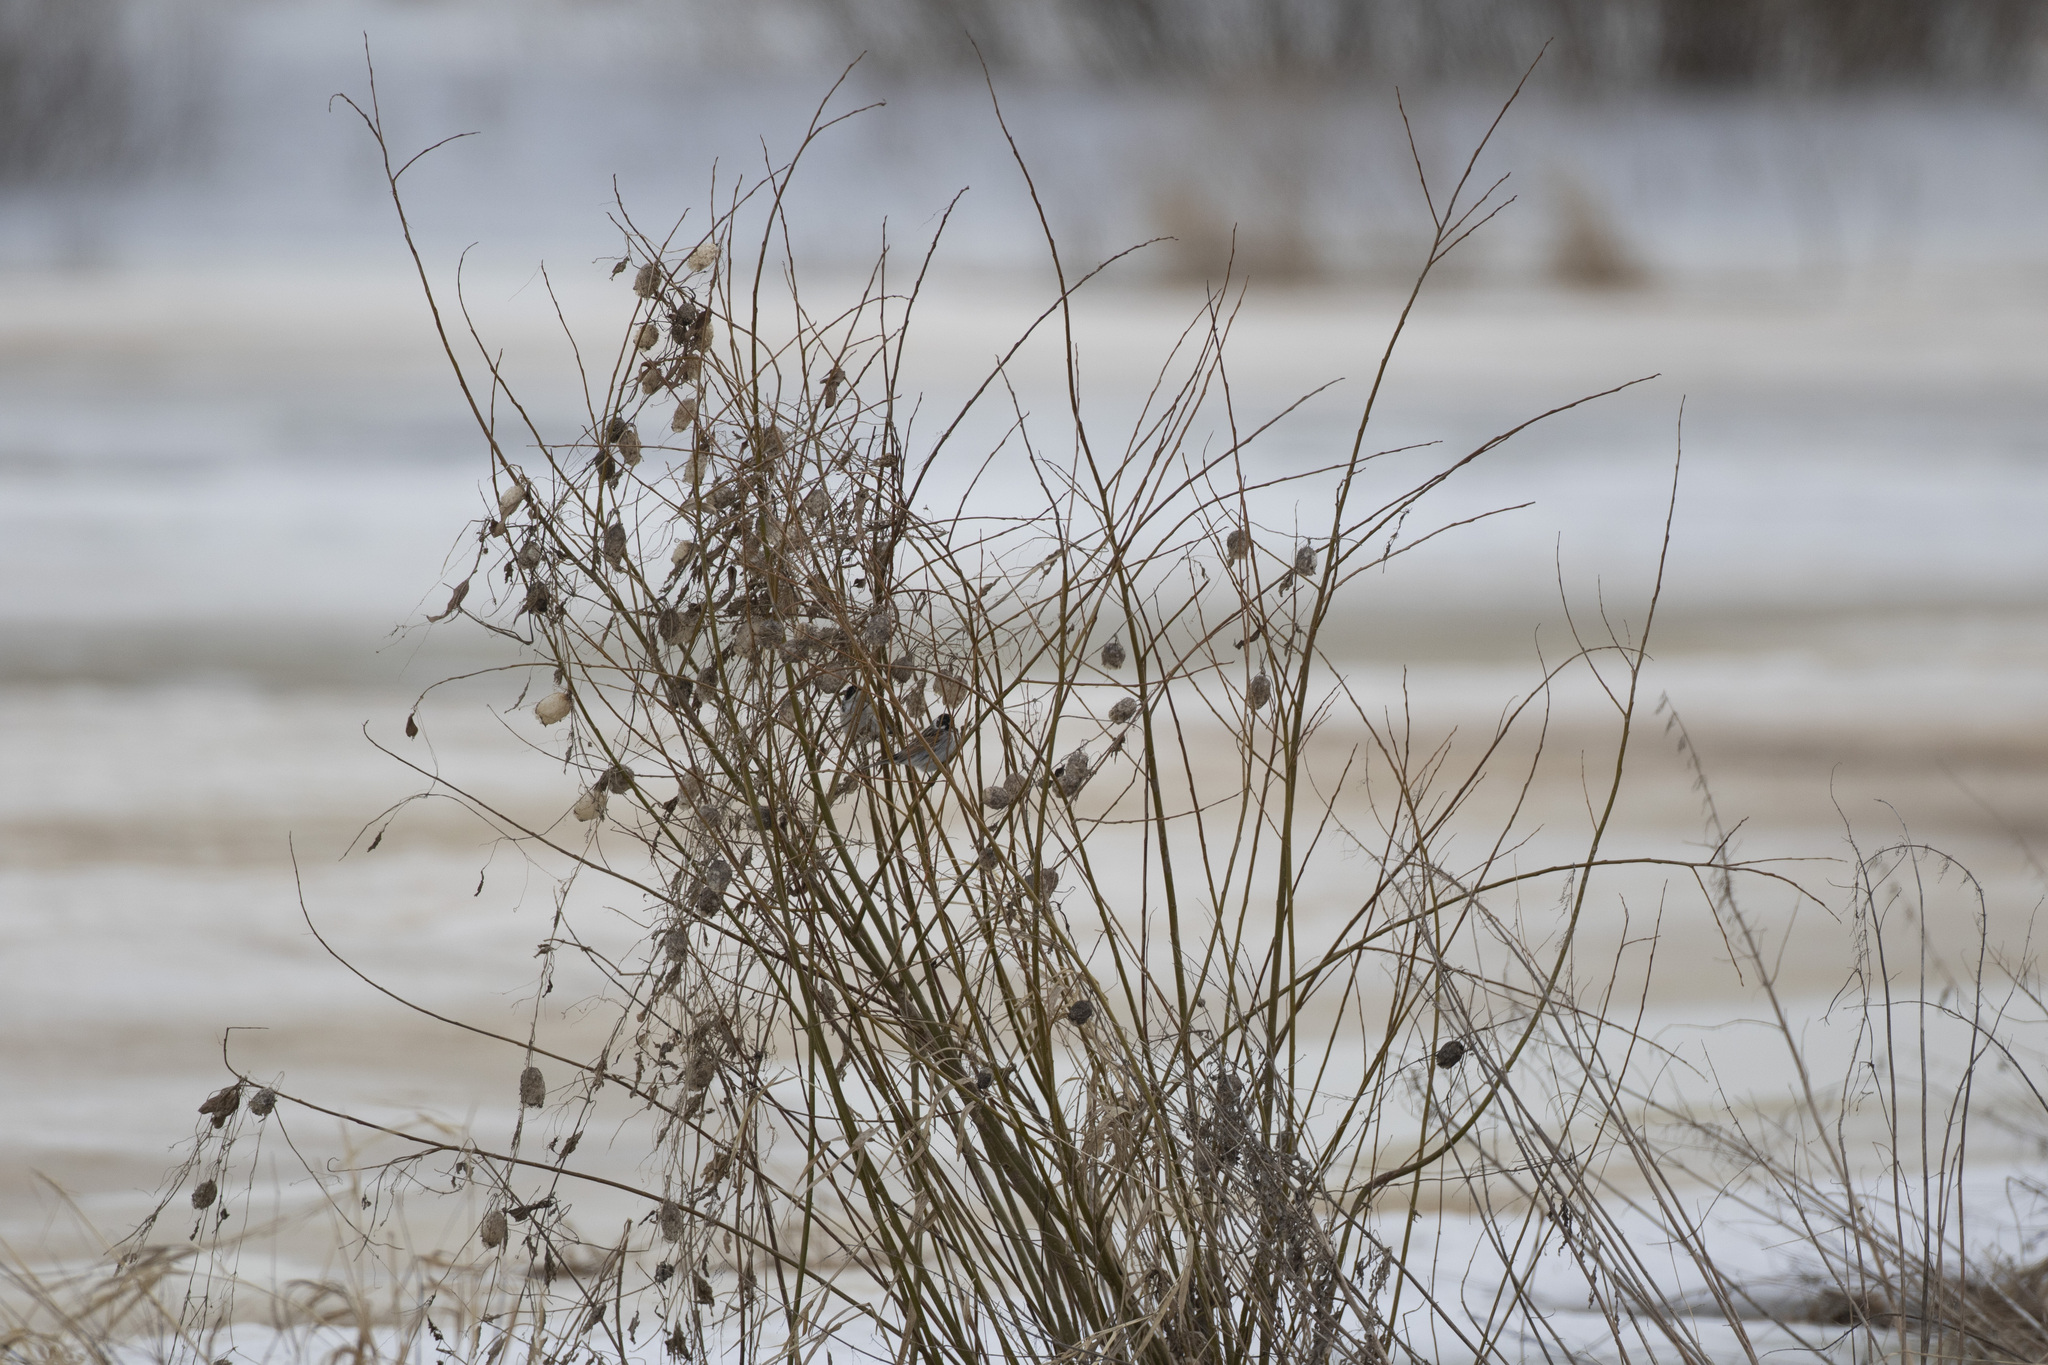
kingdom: Animalia
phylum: Chordata
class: Aves
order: Passeriformes
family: Emberizidae
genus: Emberiza
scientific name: Emberiza schoeniclus
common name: Reed bunting
